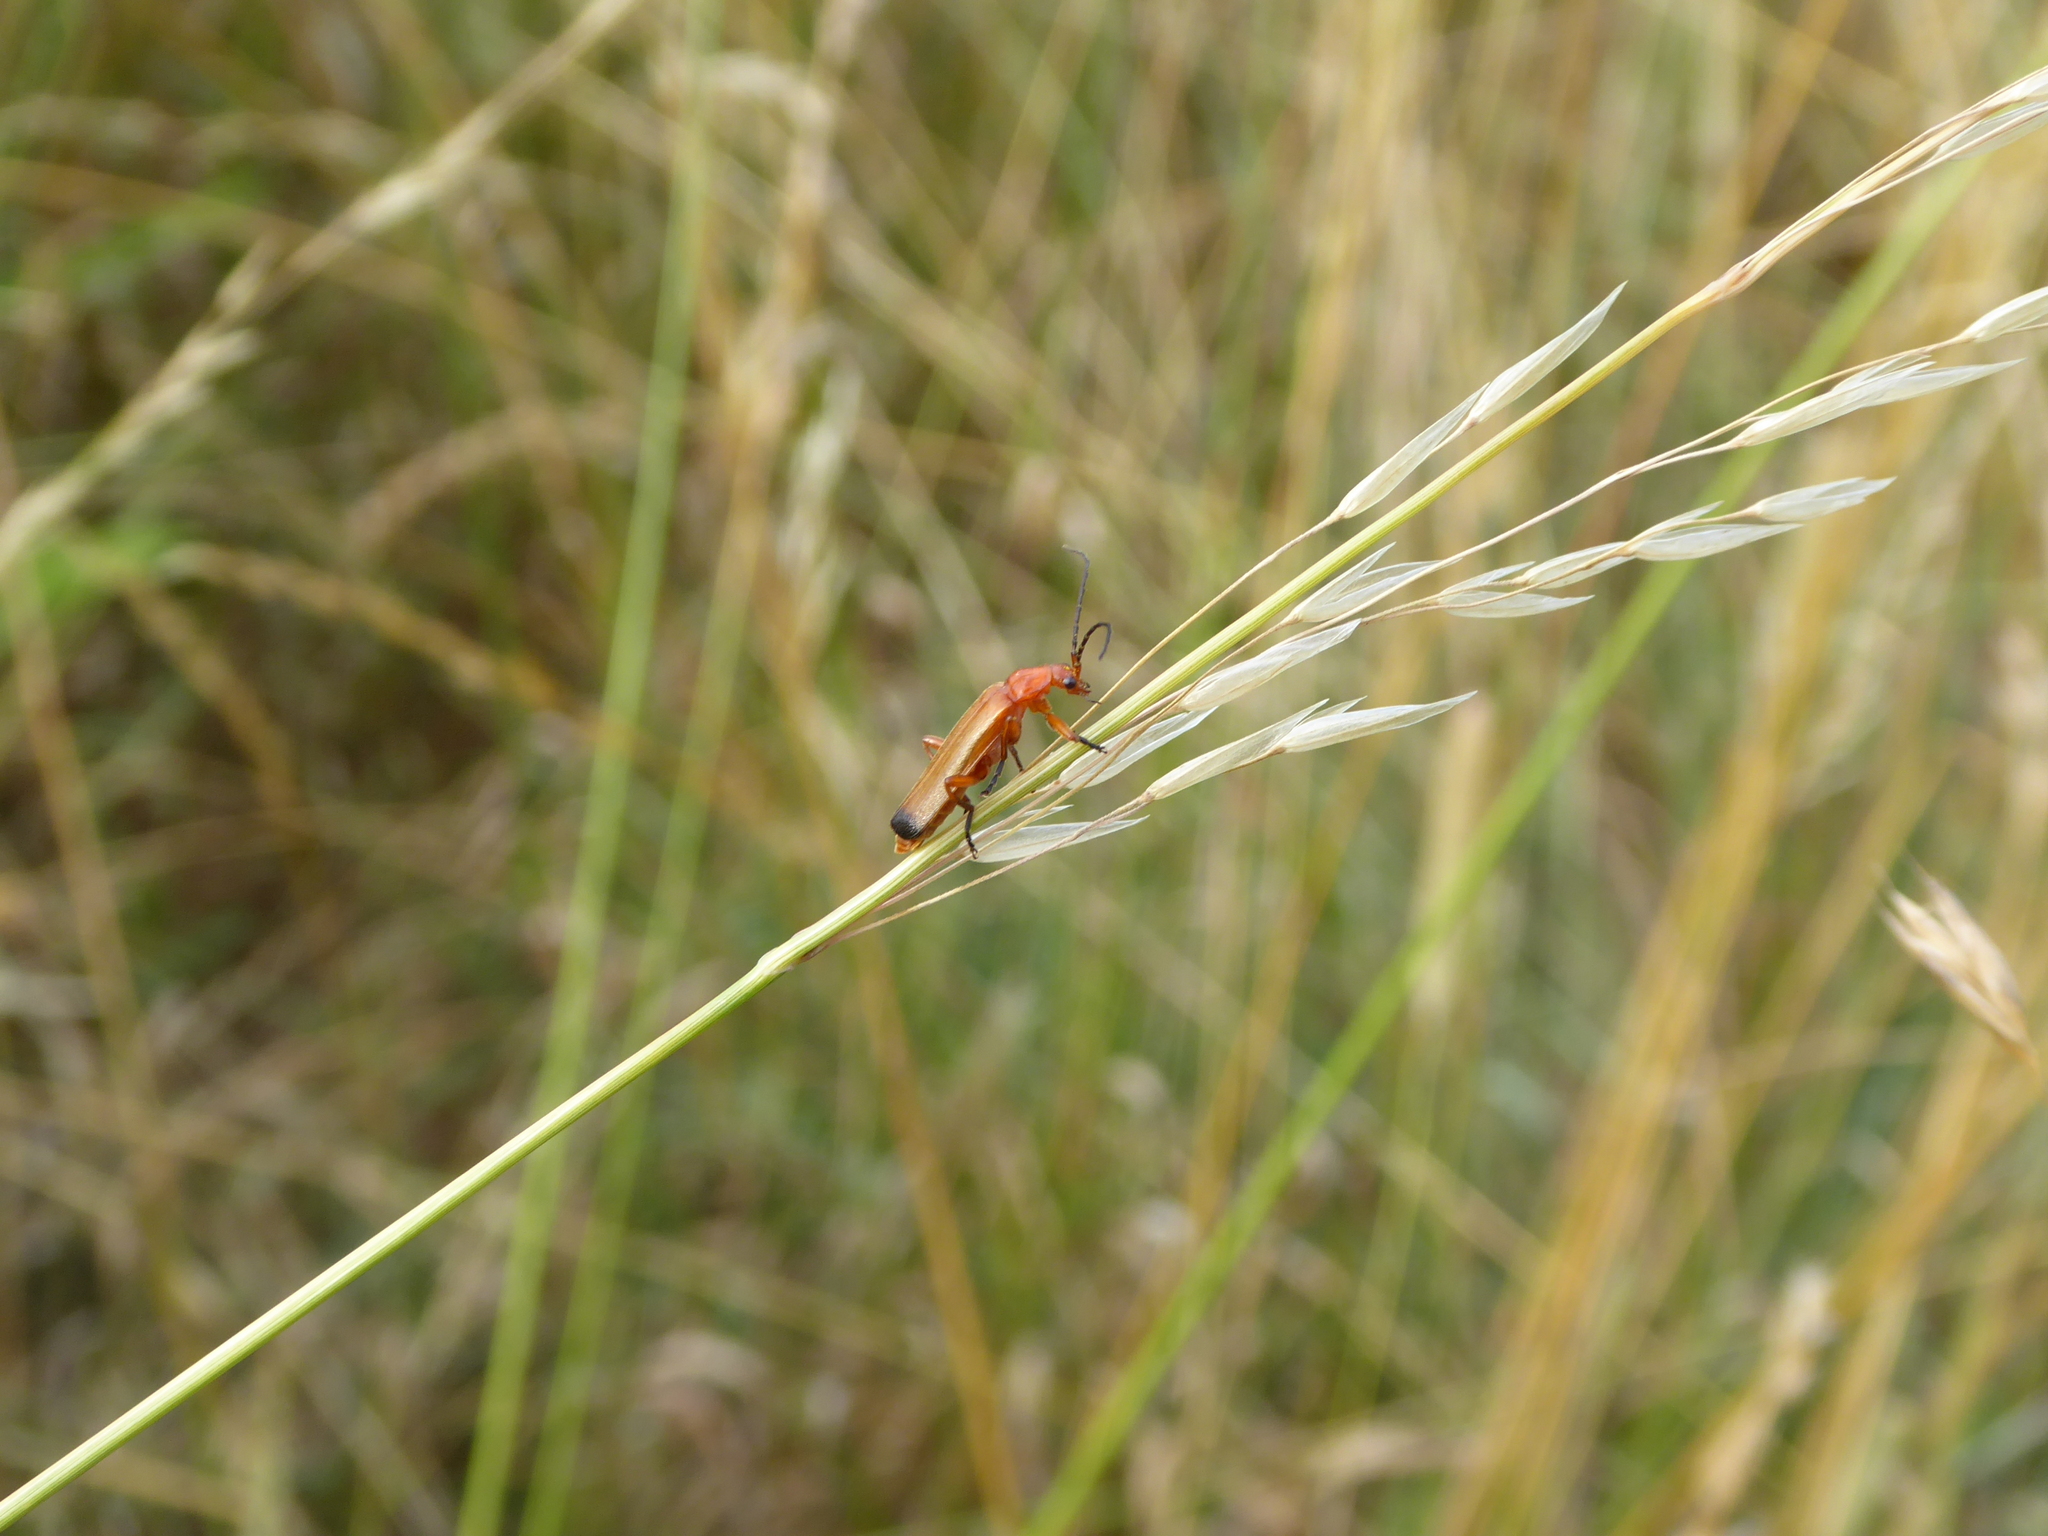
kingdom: Animalia
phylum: Arthropoda
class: Insecta
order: Coleoptera
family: Cantharidae
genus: Rhagonycha
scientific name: Rhagonycha fulva
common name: Common red soldier beetle
